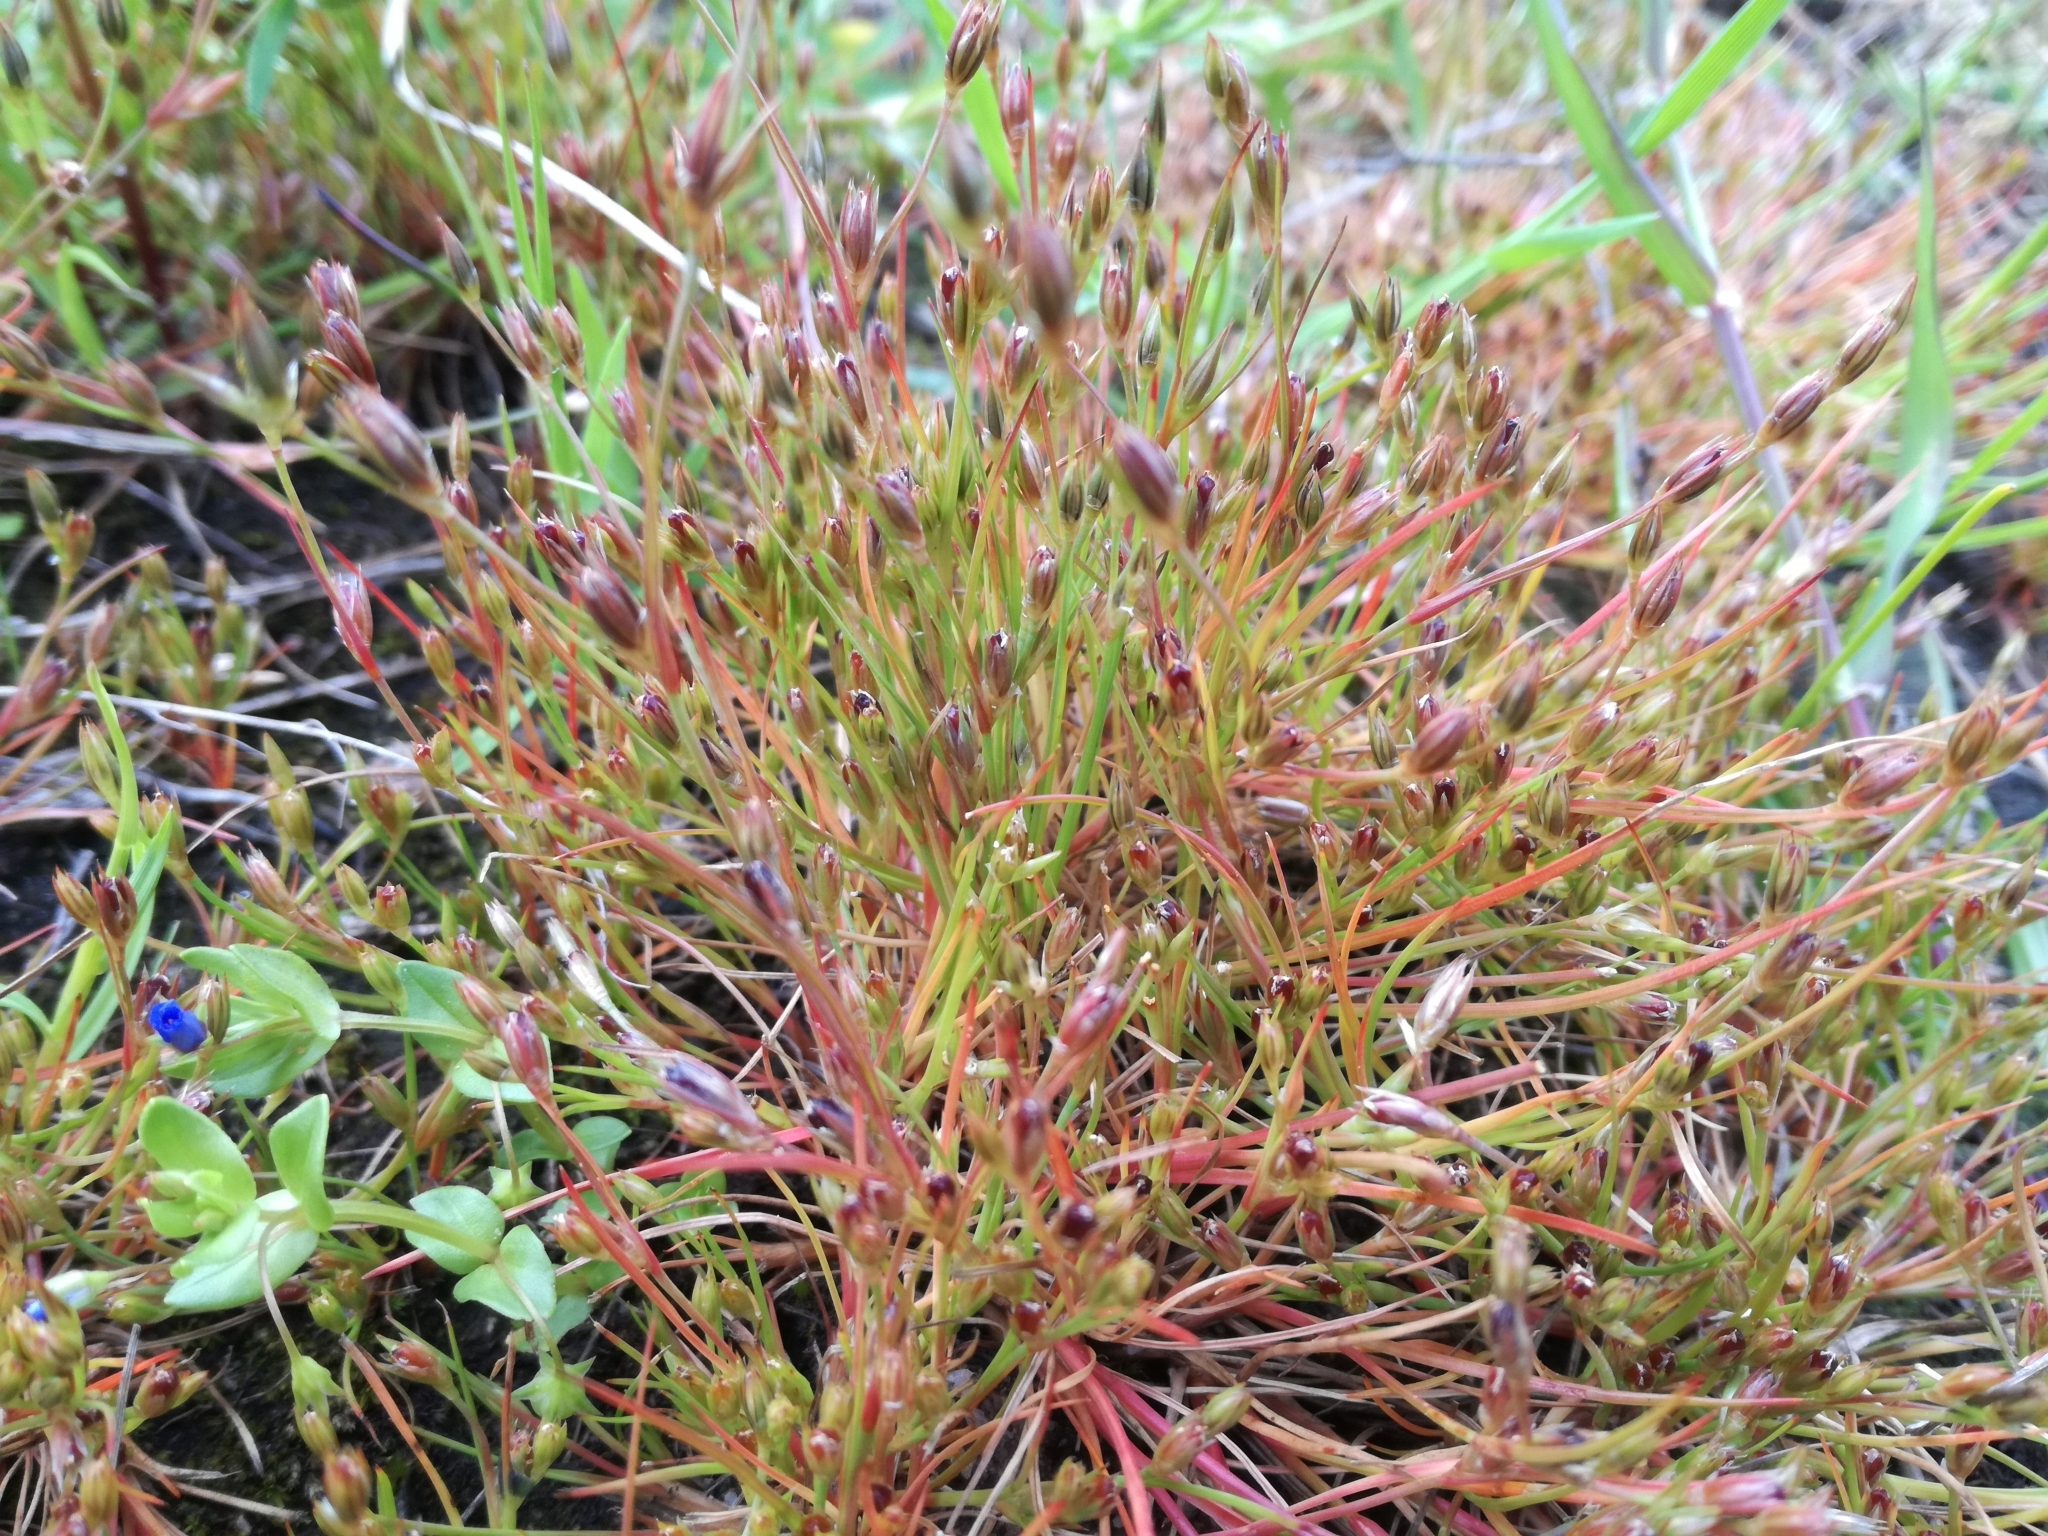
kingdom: Plantae
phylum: Tracheophyta
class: Liliopsida
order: Poales
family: Juncaceae
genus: Juncus
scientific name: Juncus bufonius
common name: Toad rush
